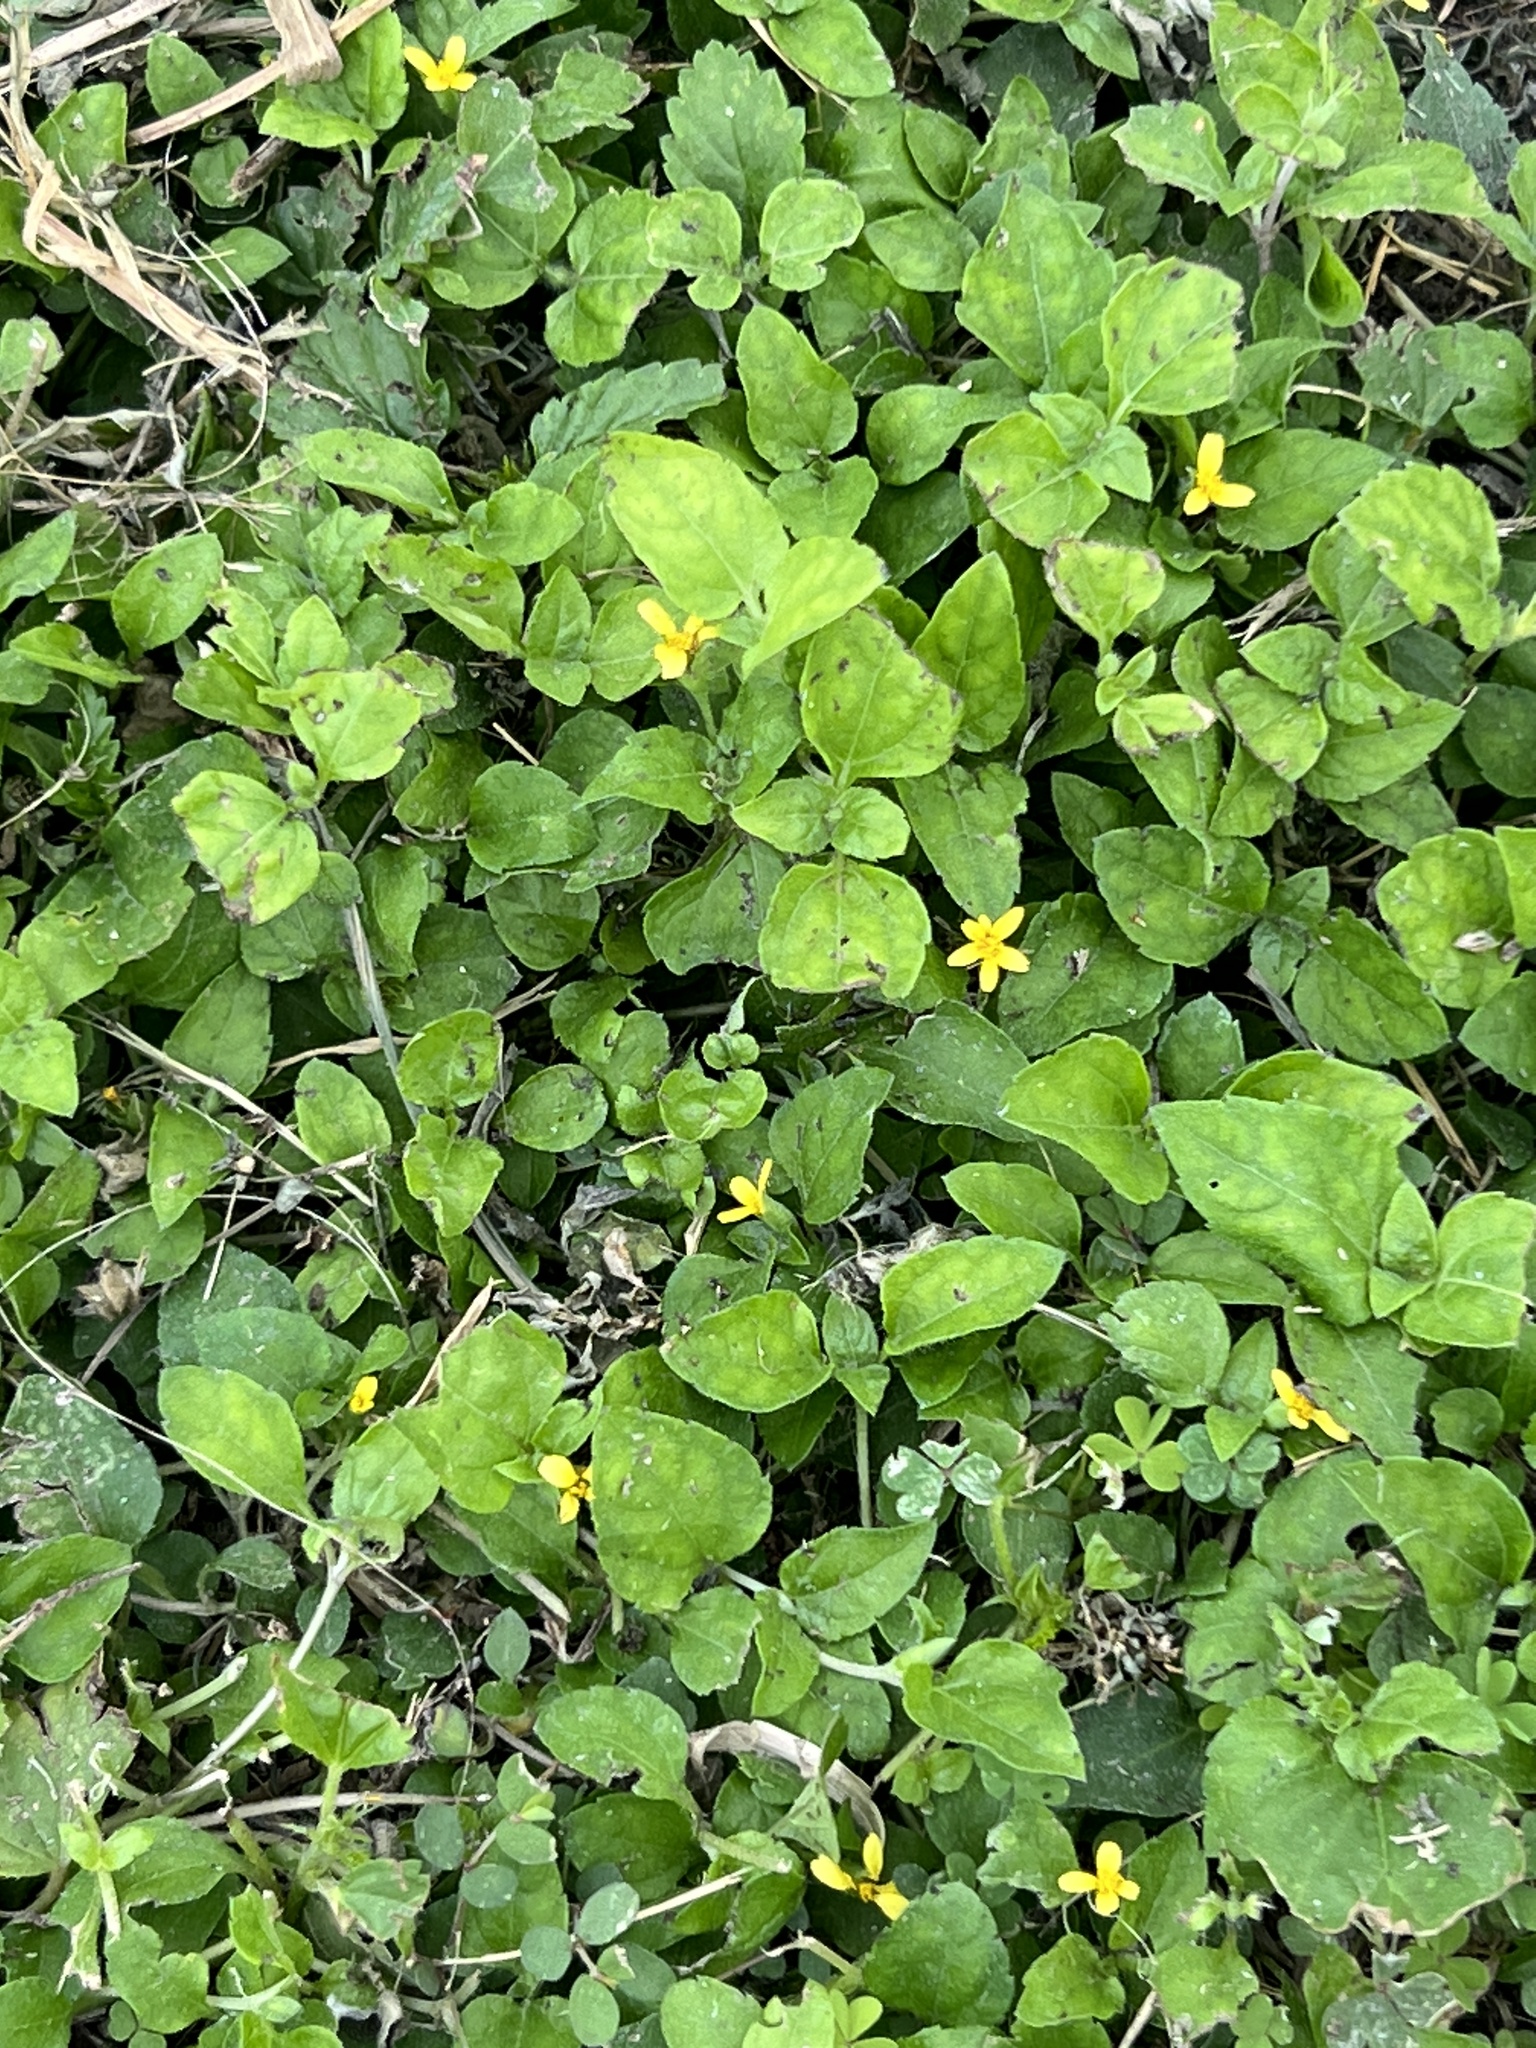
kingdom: Plantae
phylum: Tracheophyta
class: Magnoliopsida
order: Asterales
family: Asteraceae
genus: Calyptocarpus
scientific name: Calyptocarpus vialis
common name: Straggler daisy
